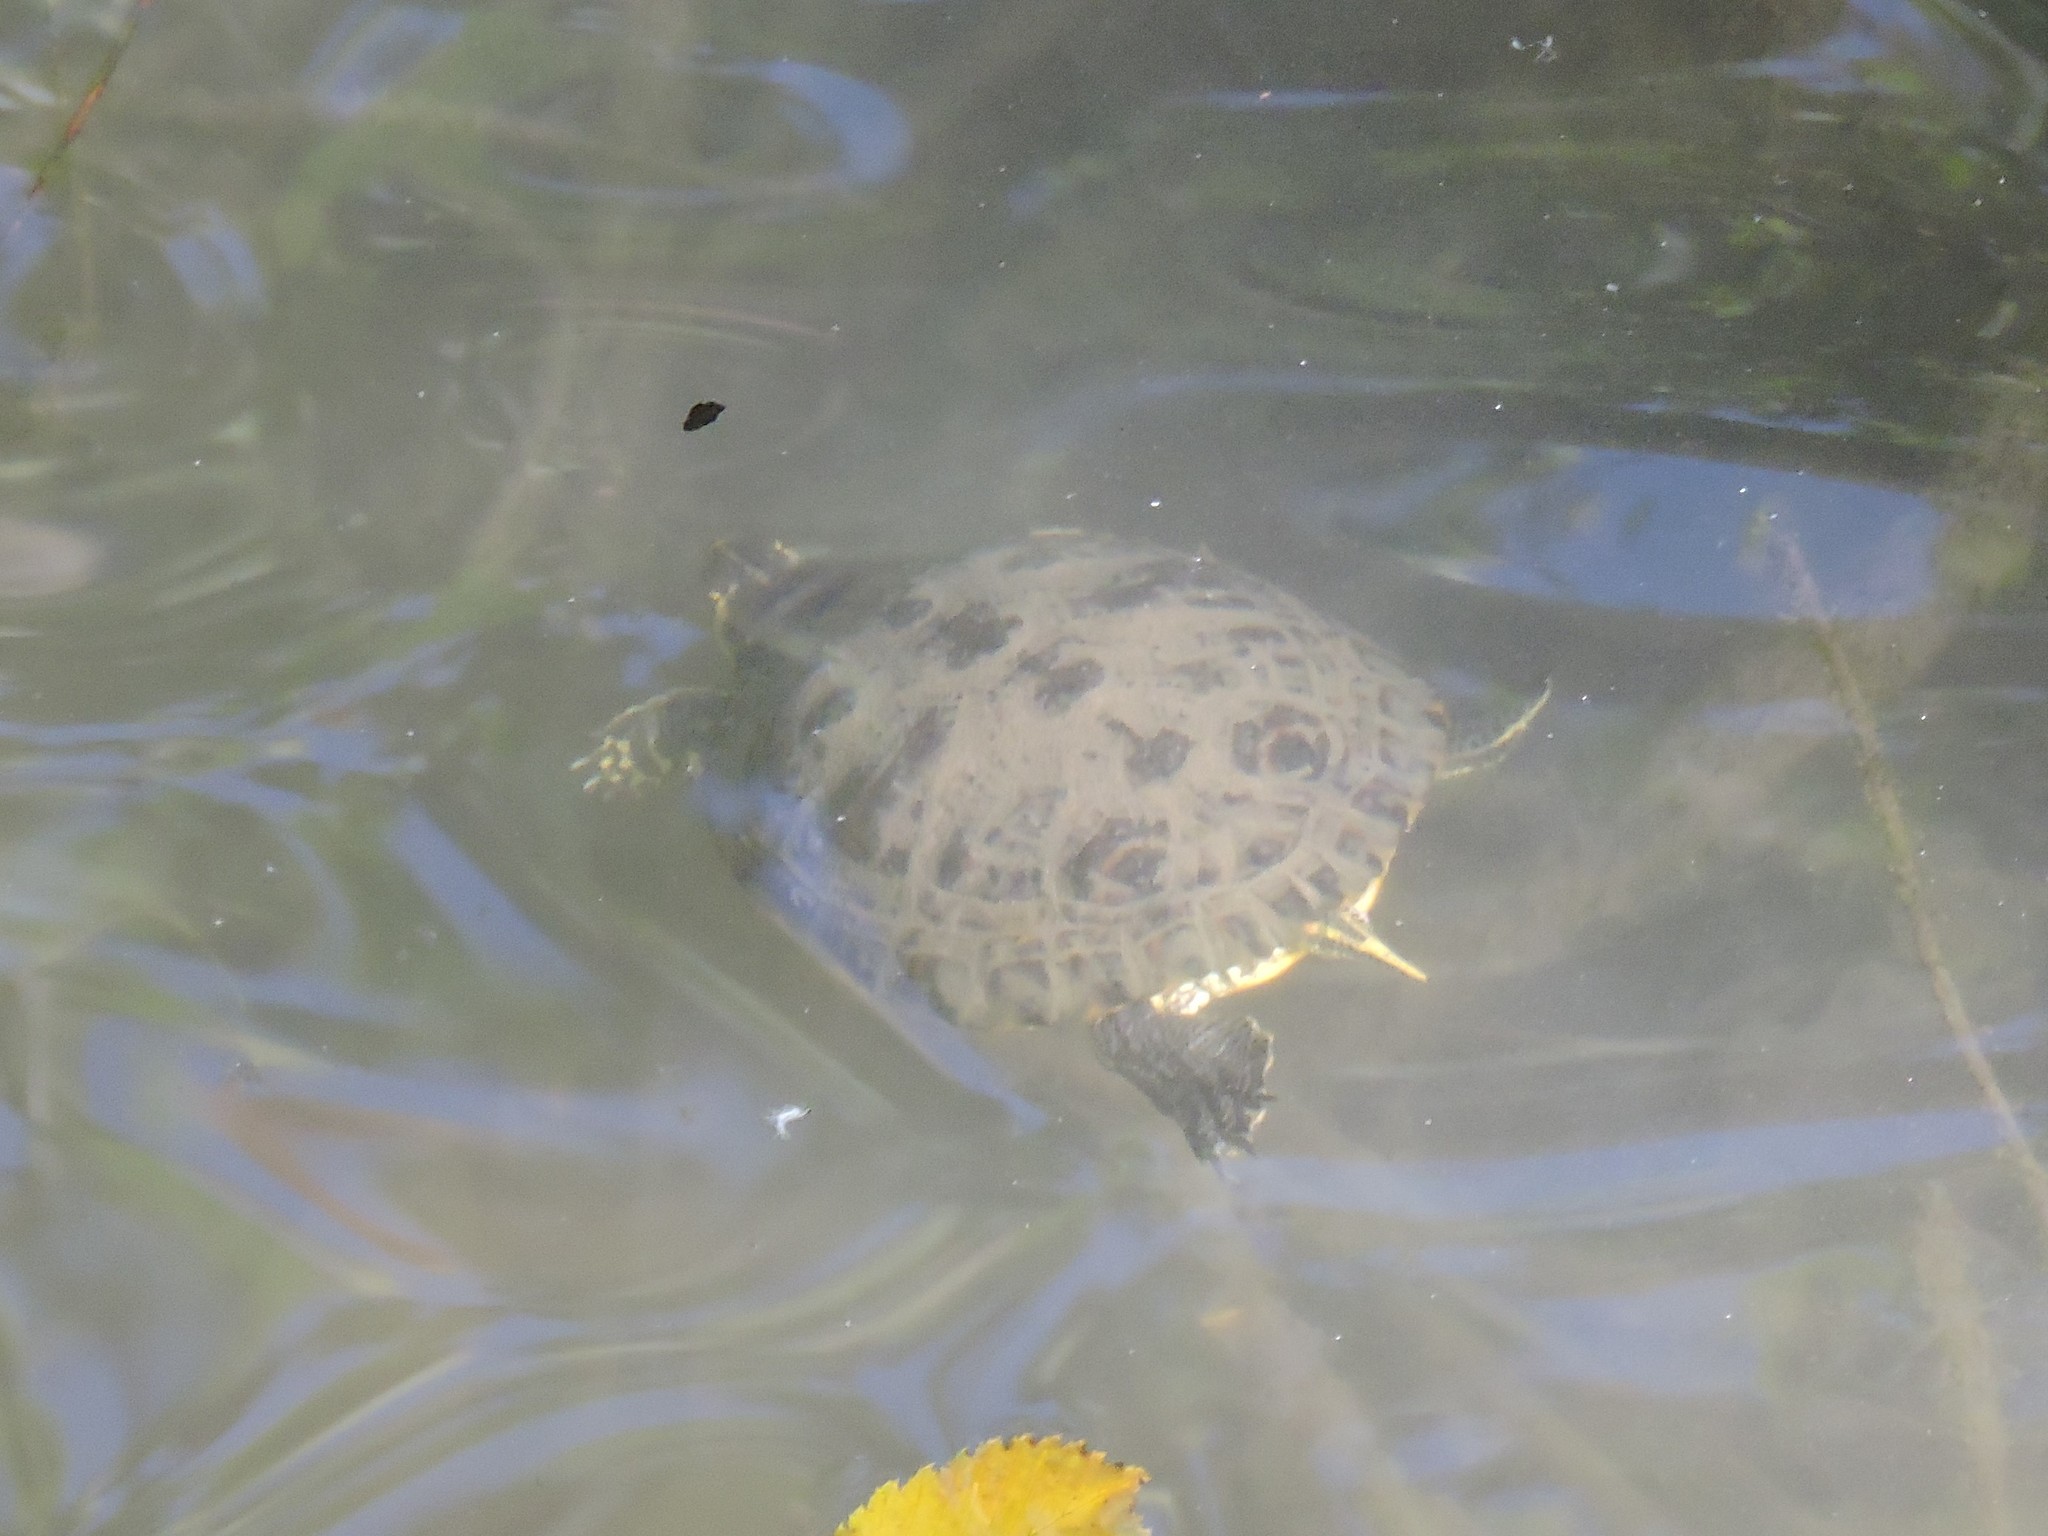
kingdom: Animalia
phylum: Chordata
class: Testudines
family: Emydidae
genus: Trachemys
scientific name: Trachemys scripta
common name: Slider
